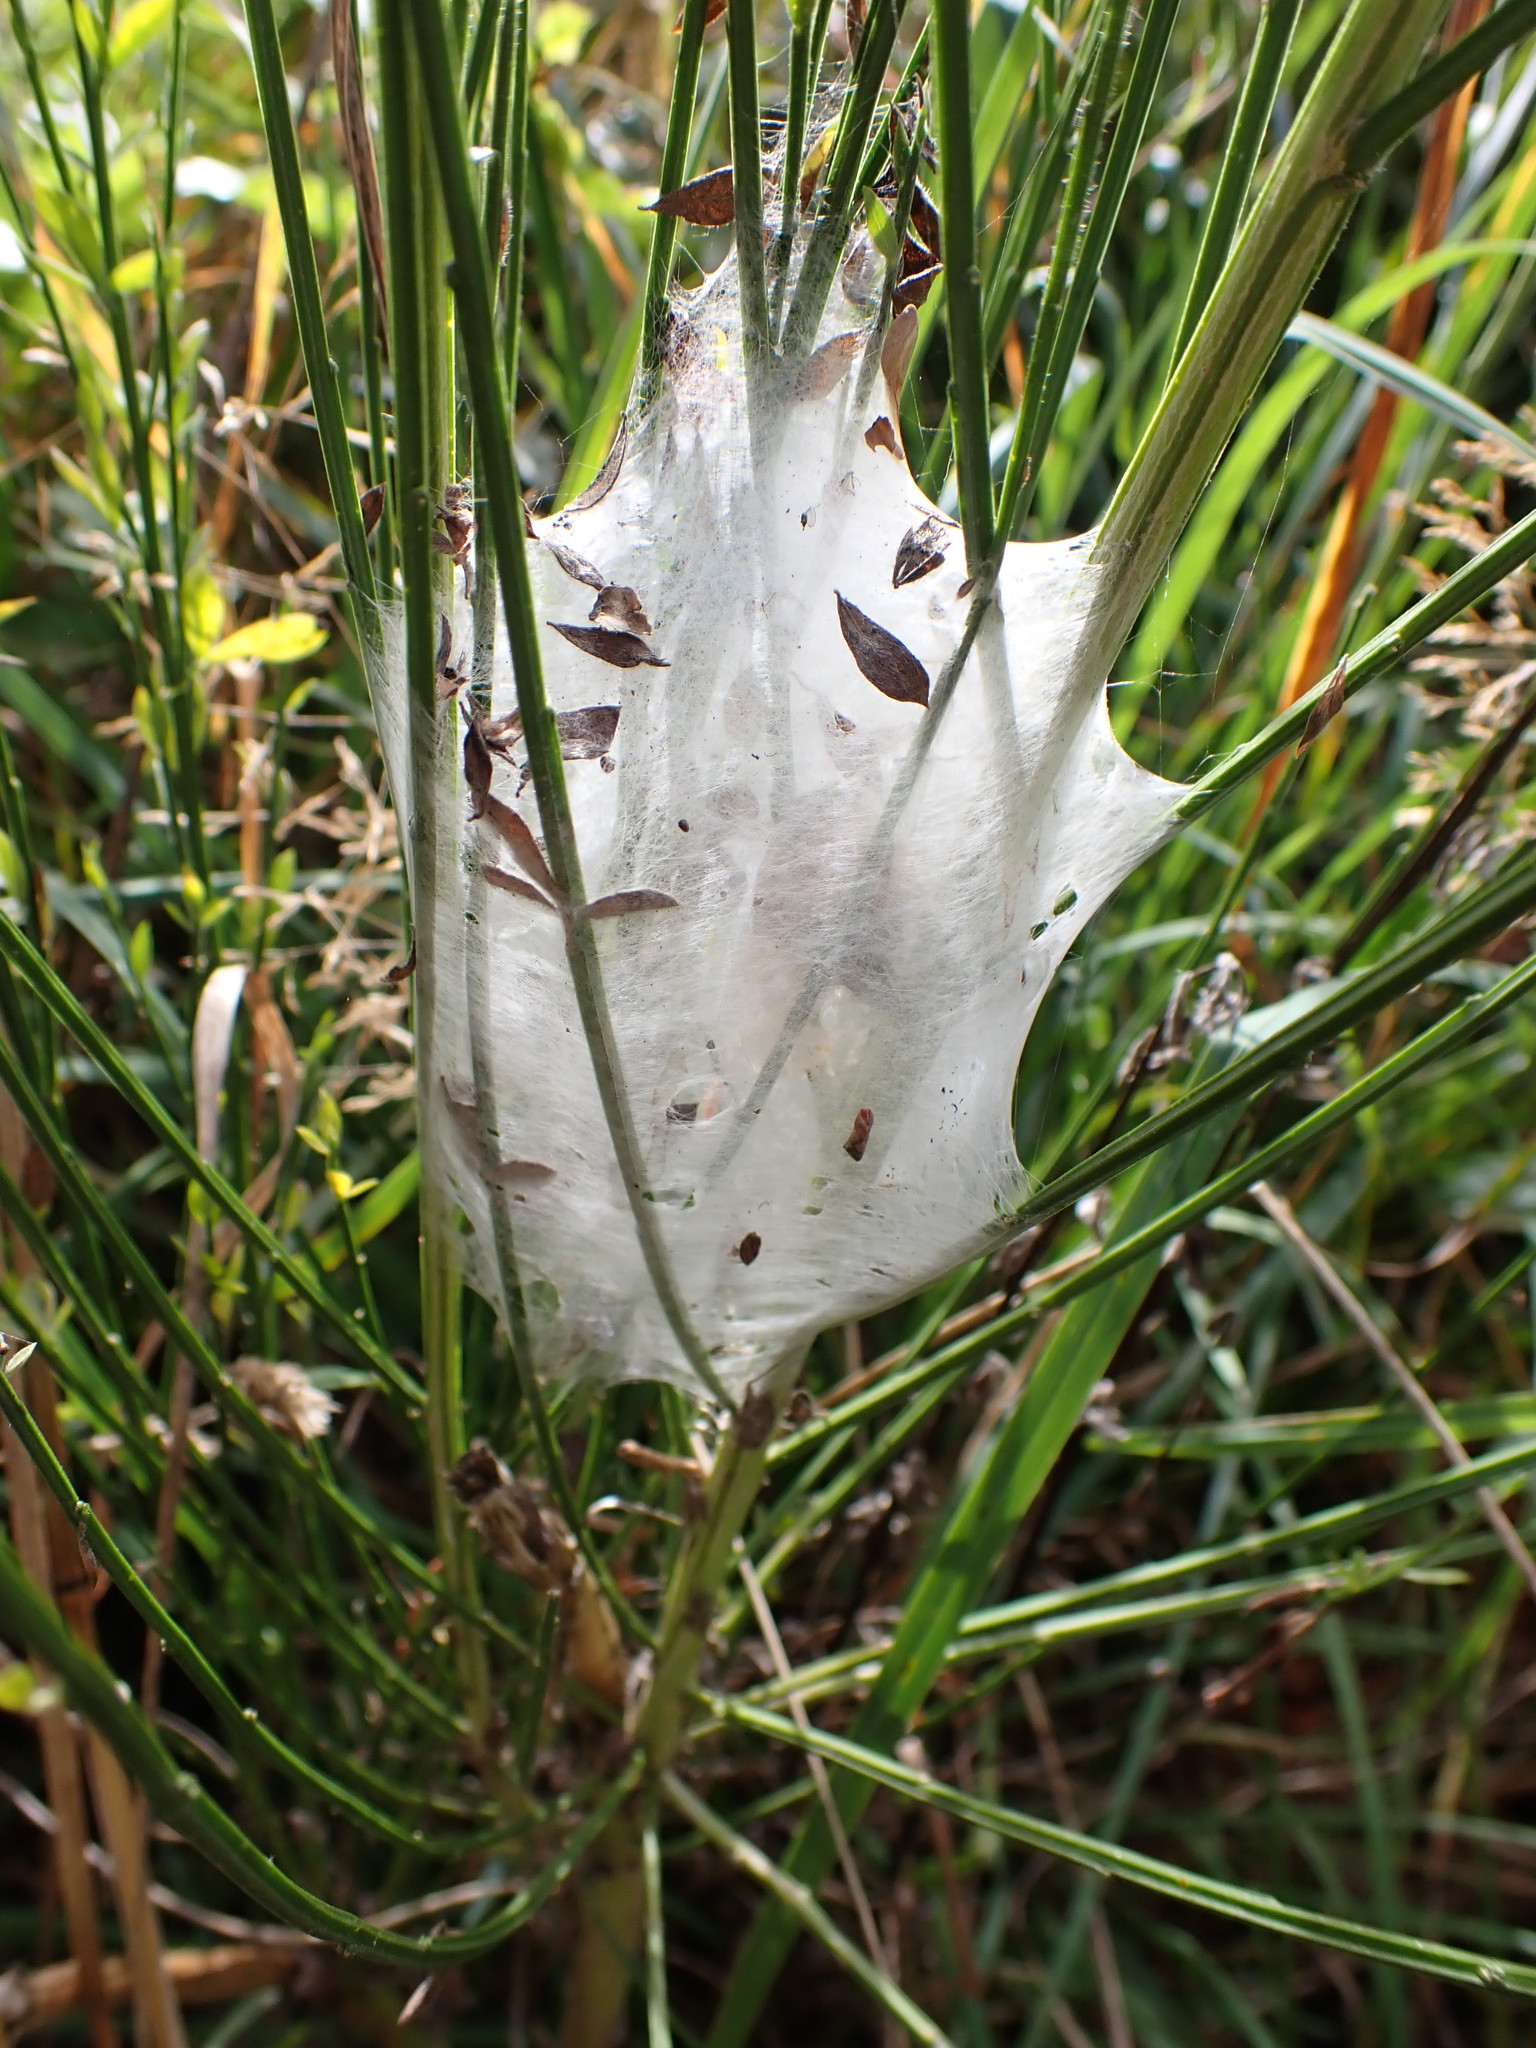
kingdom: Animalia
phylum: Arthropoda
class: Arachnida
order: Araneae
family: Pisauridae
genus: Dolomedes
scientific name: Dolomedes minor
